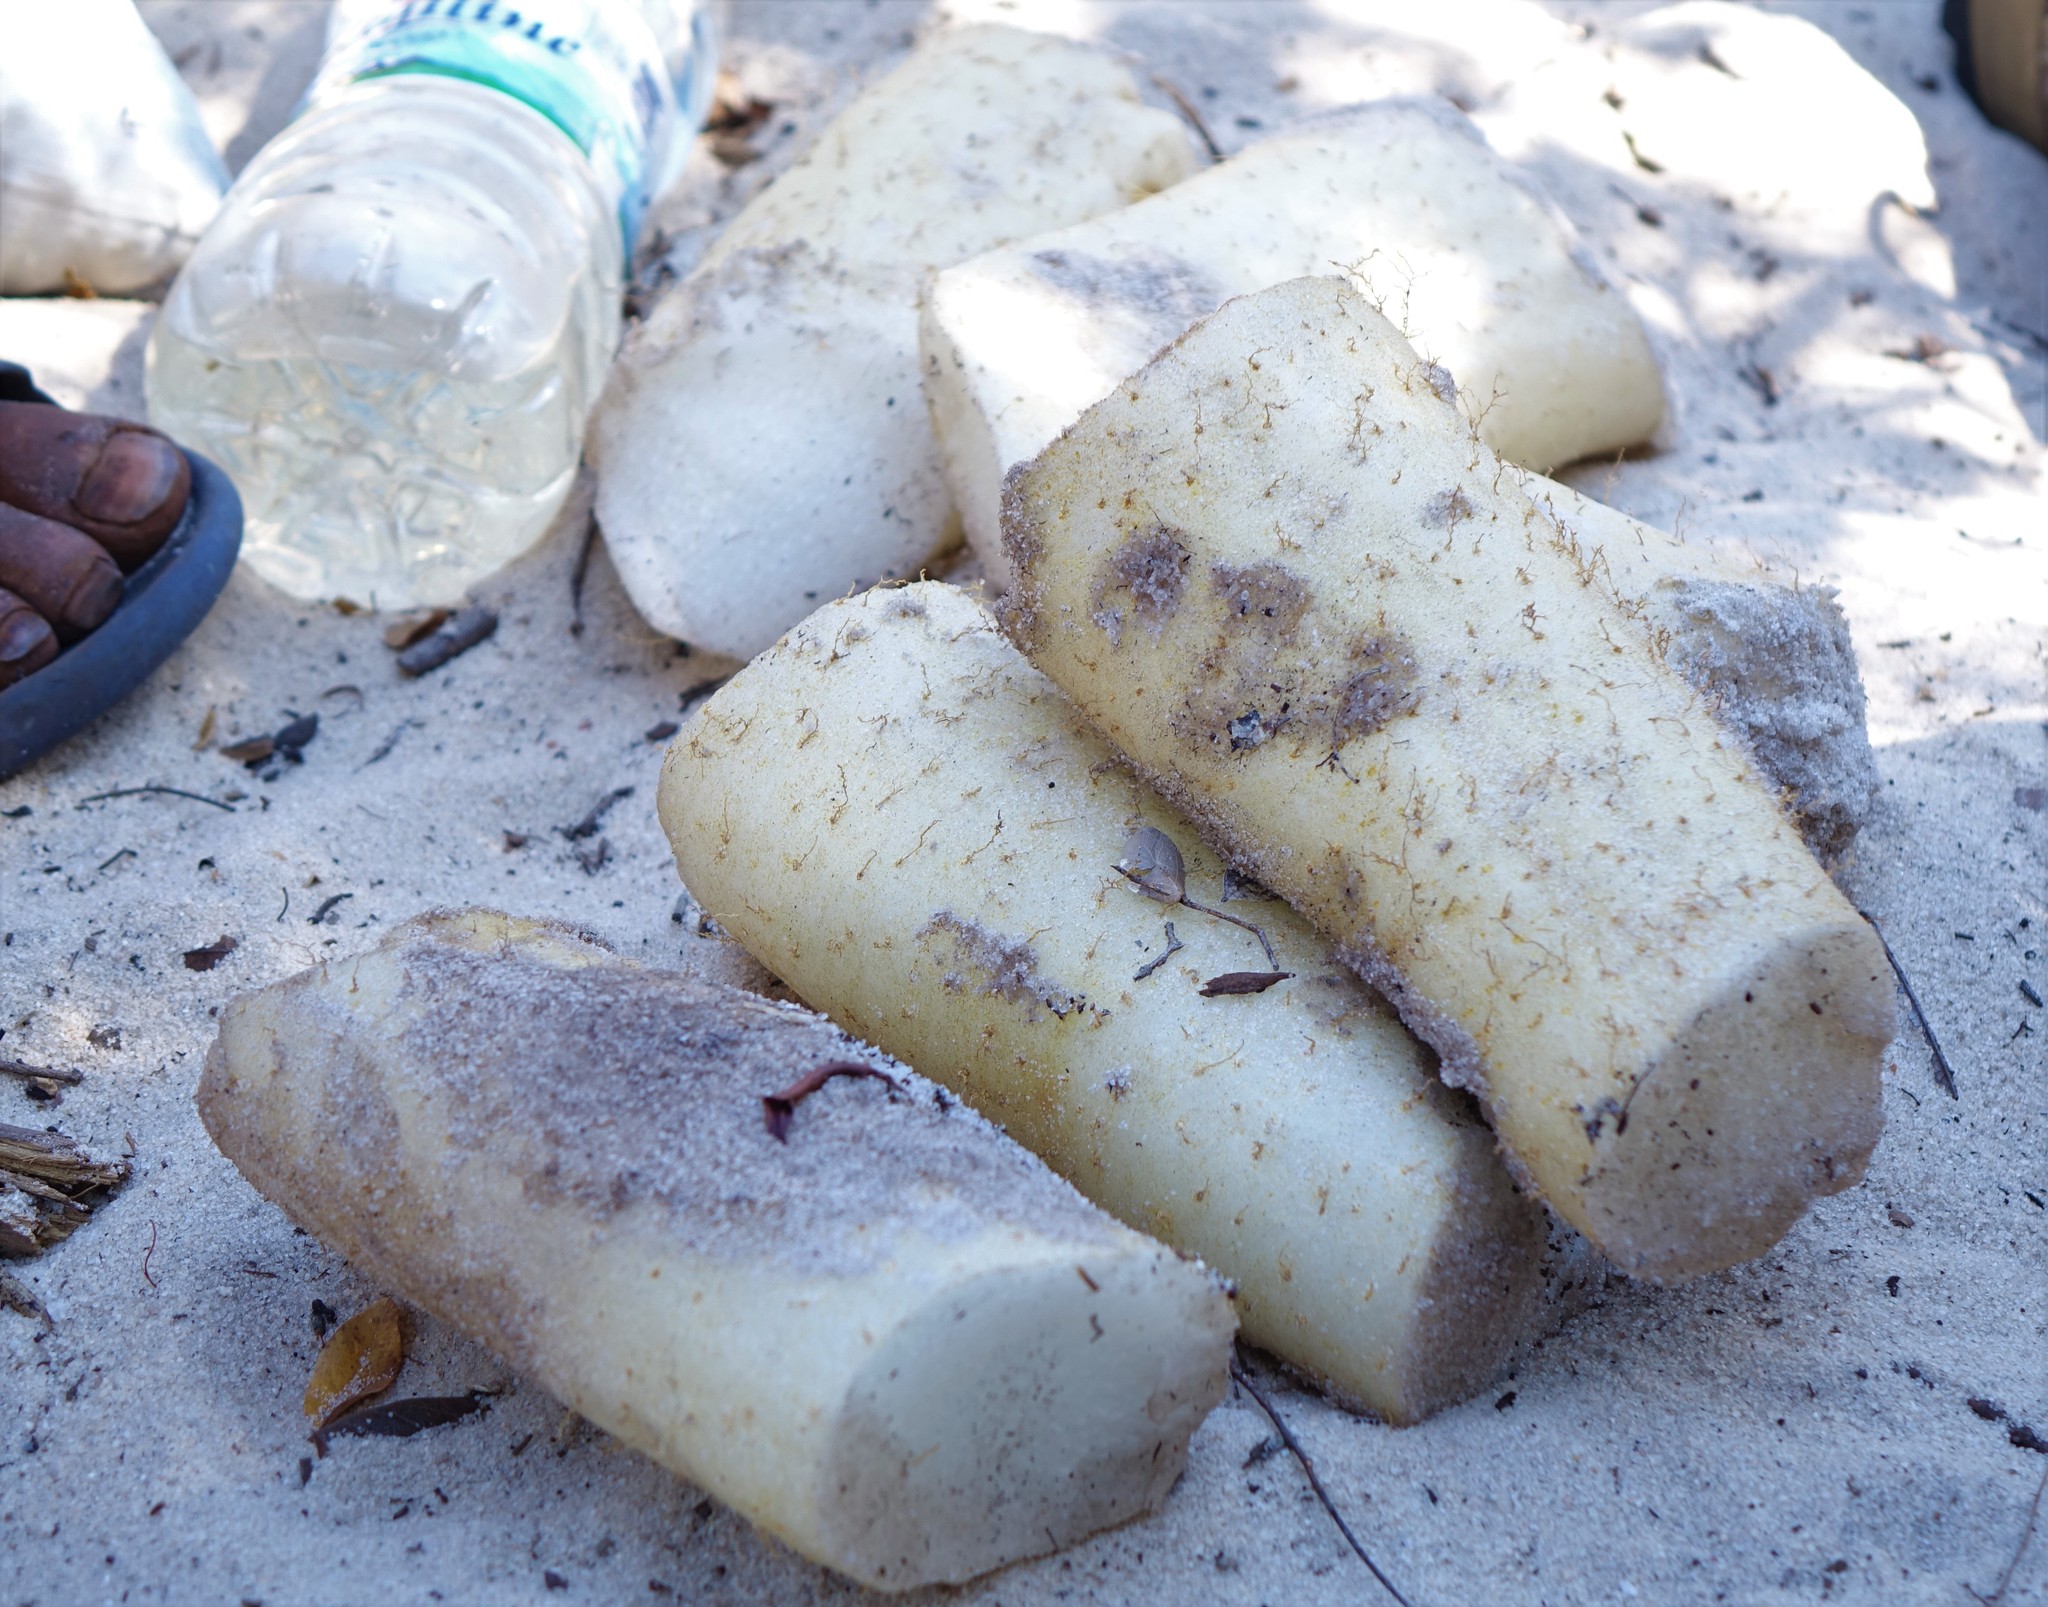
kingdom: Plantae
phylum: Tracheophyta
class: Liliopsida
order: Dioscoreales
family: Dioscoreaceae
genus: Dioscorea
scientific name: Dioscorea bemandry
